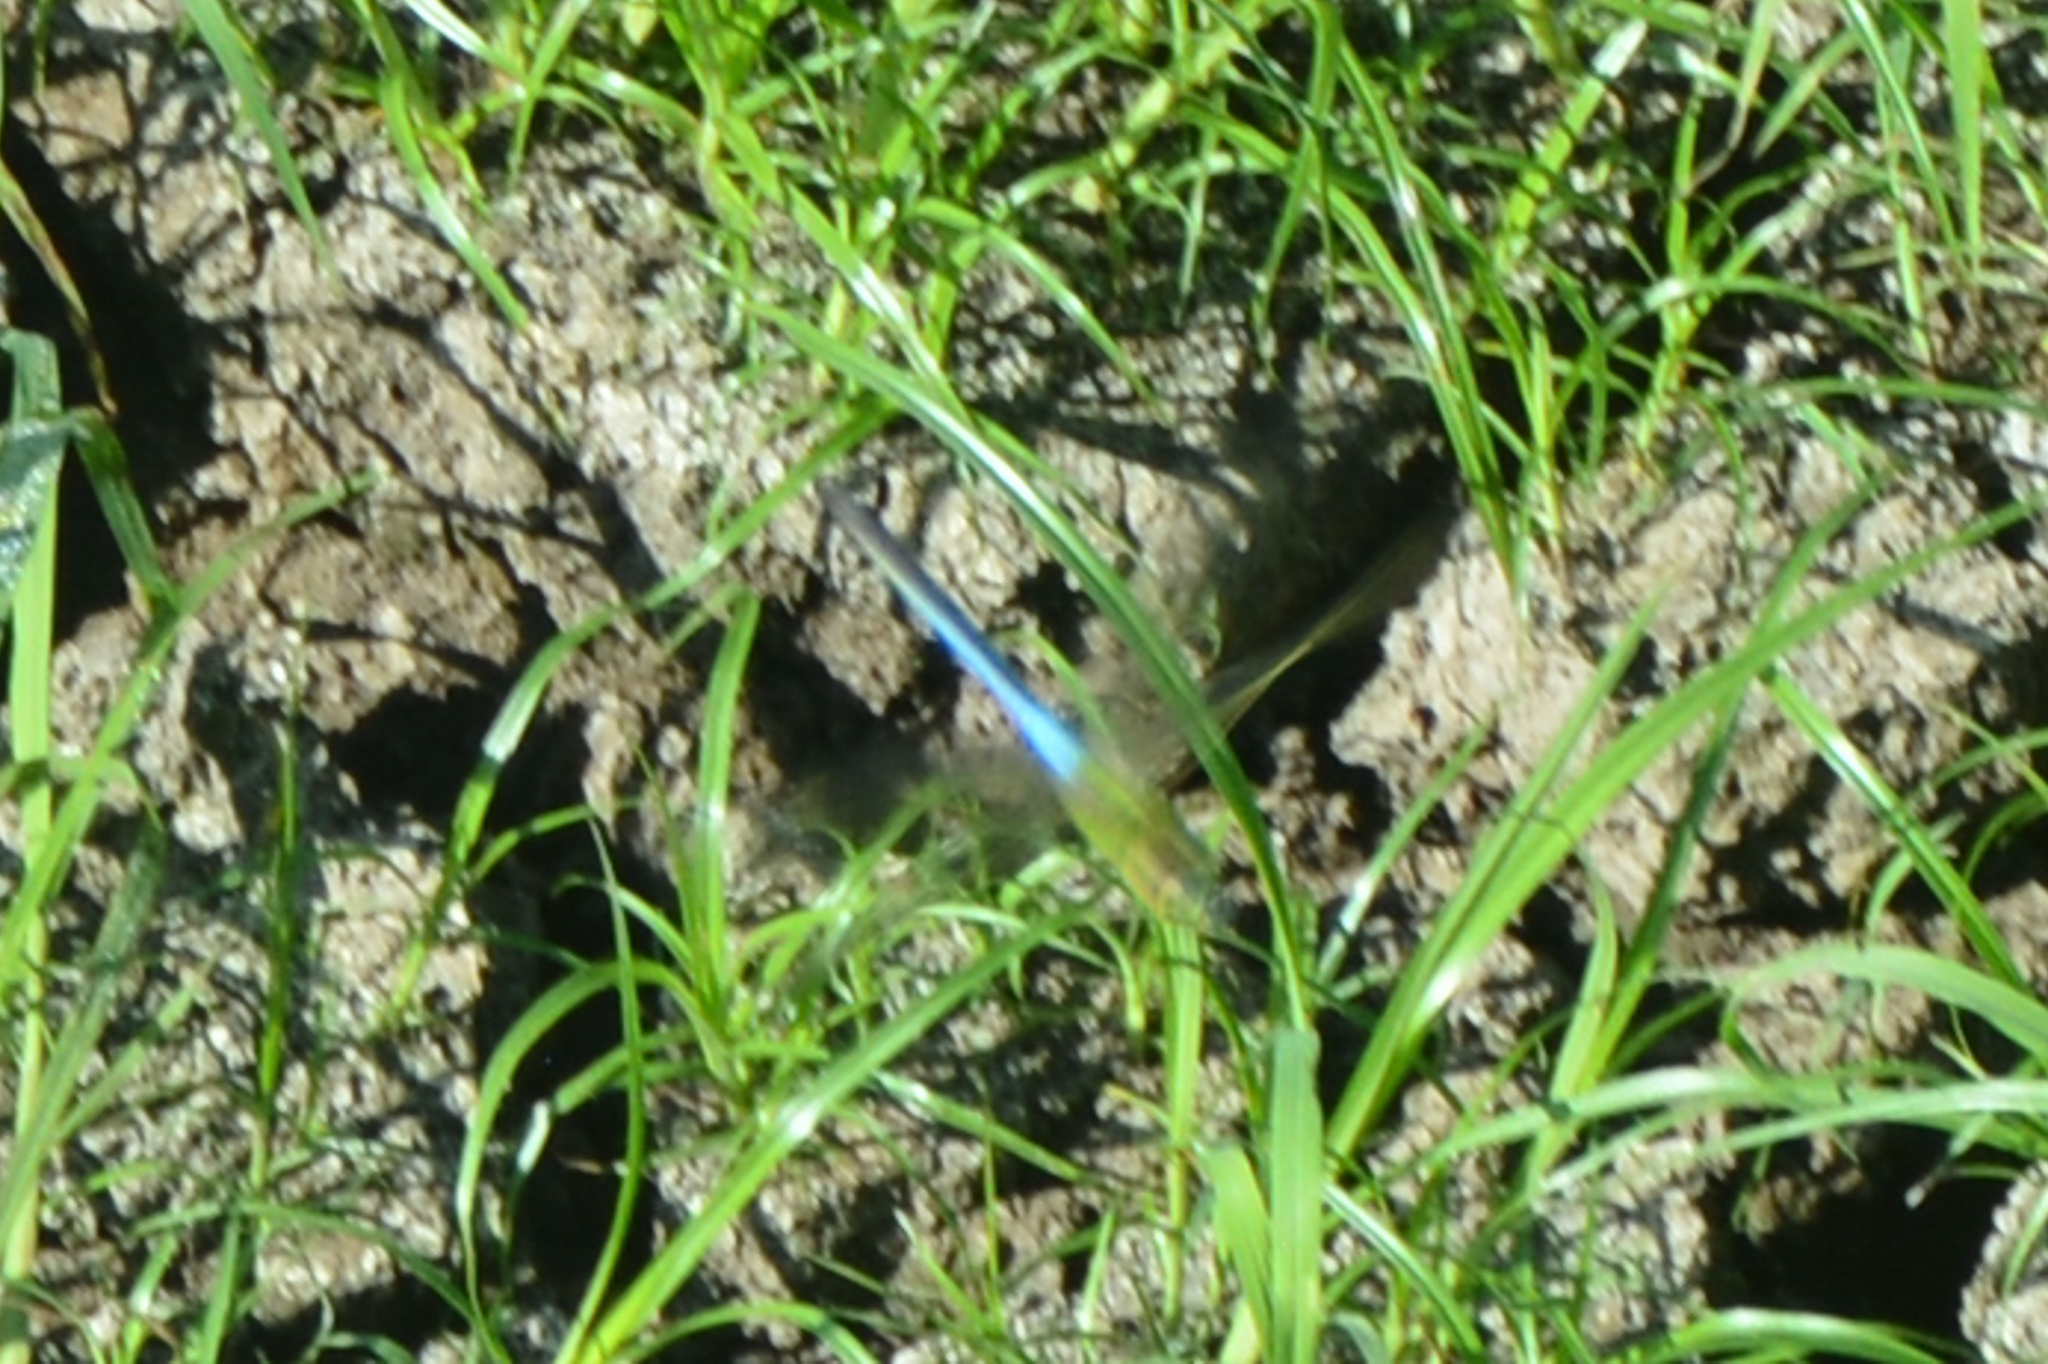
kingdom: Animalia
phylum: Arthropoda
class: Insecta
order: Odonata
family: Aeshnidae
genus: Anax
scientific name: Anax junius
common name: Common green darner
